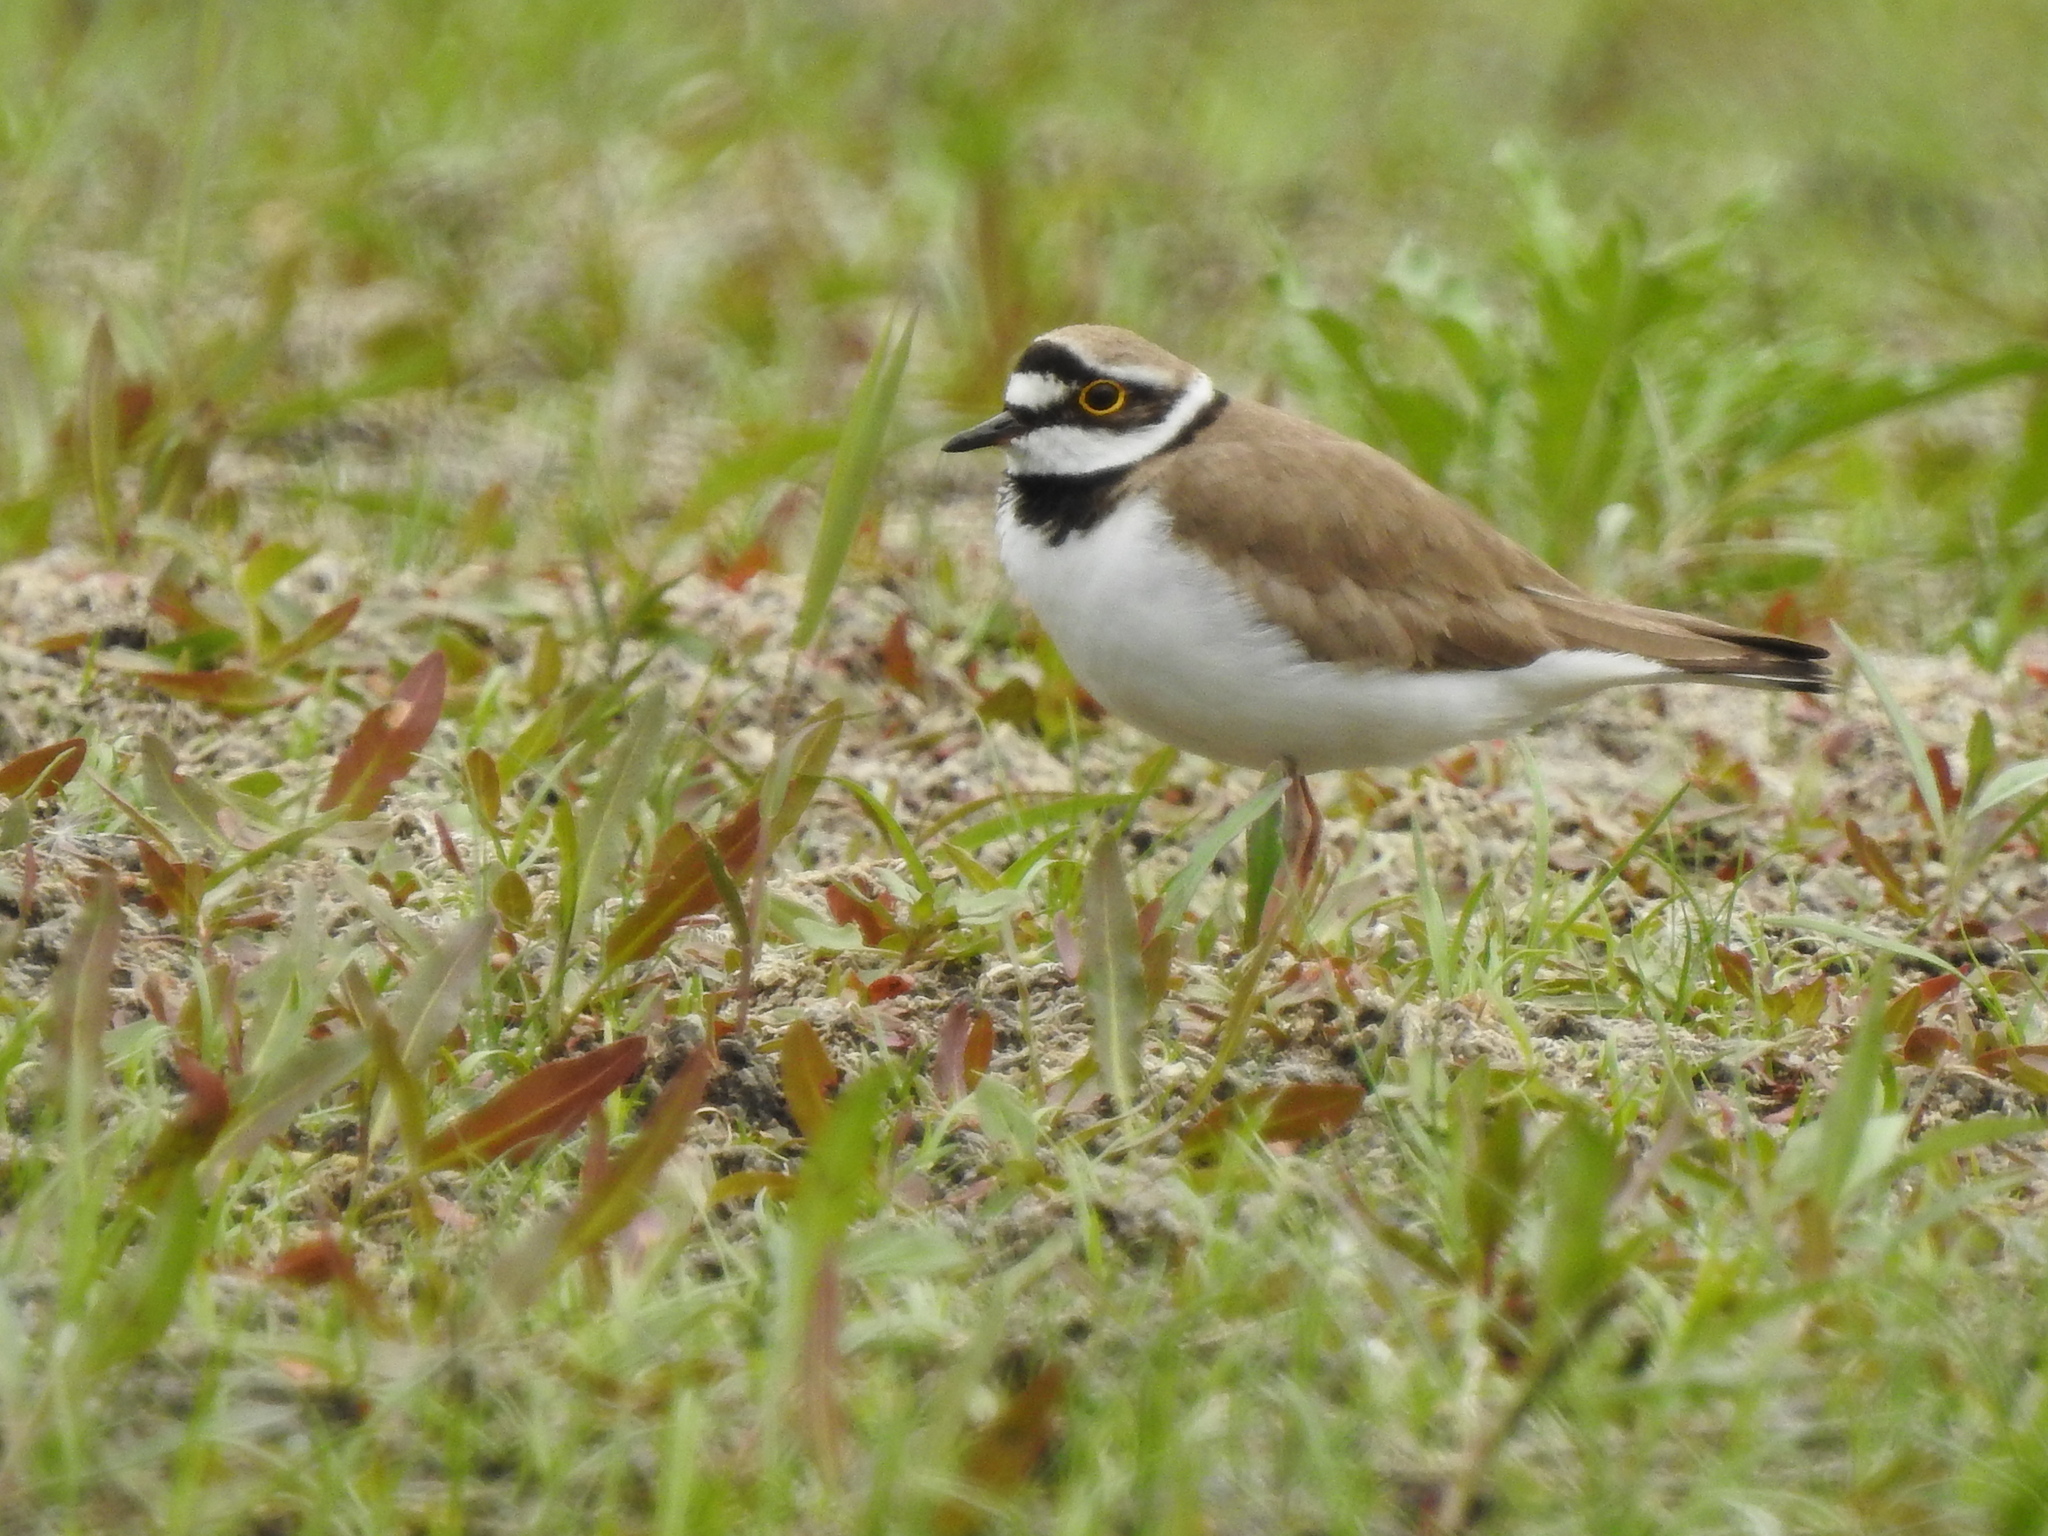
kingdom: Animalia
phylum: Chordata
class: Aves
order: Charadriiformes
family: Charadriidae
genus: Charadrius
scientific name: Charadrius dubius
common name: Little ringed plover
